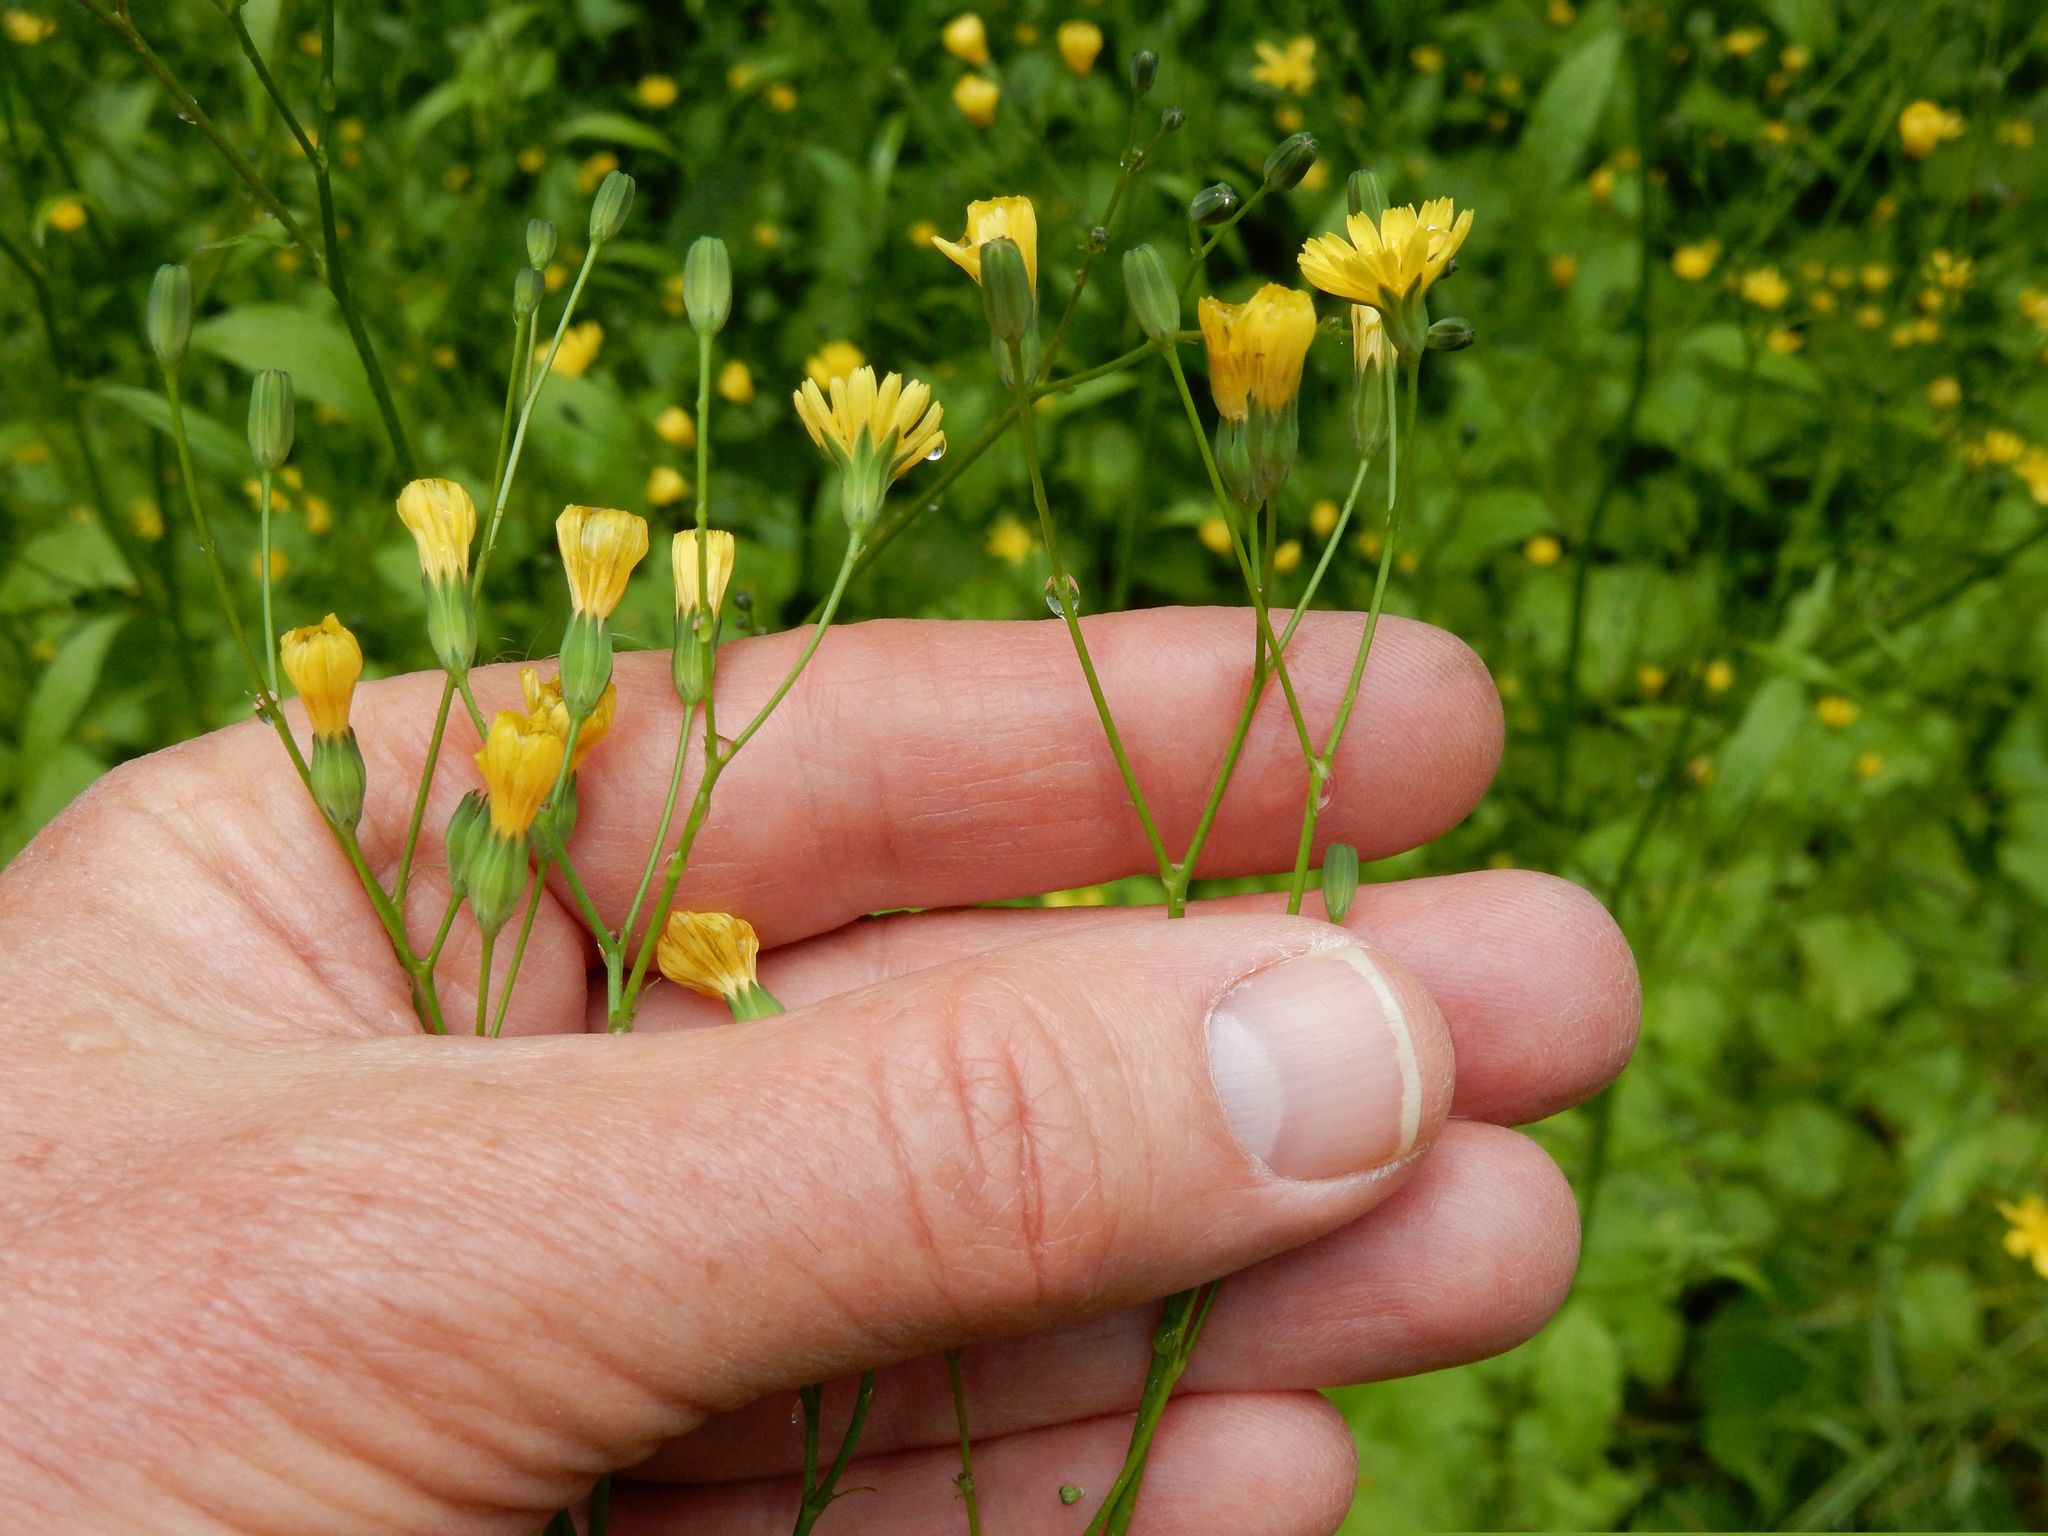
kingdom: Plantae
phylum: Tracheophyta
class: Magnoliopsida
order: Asterales
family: Asteraceae
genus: Lapsana
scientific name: Lapsana communis
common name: Nipplewort
